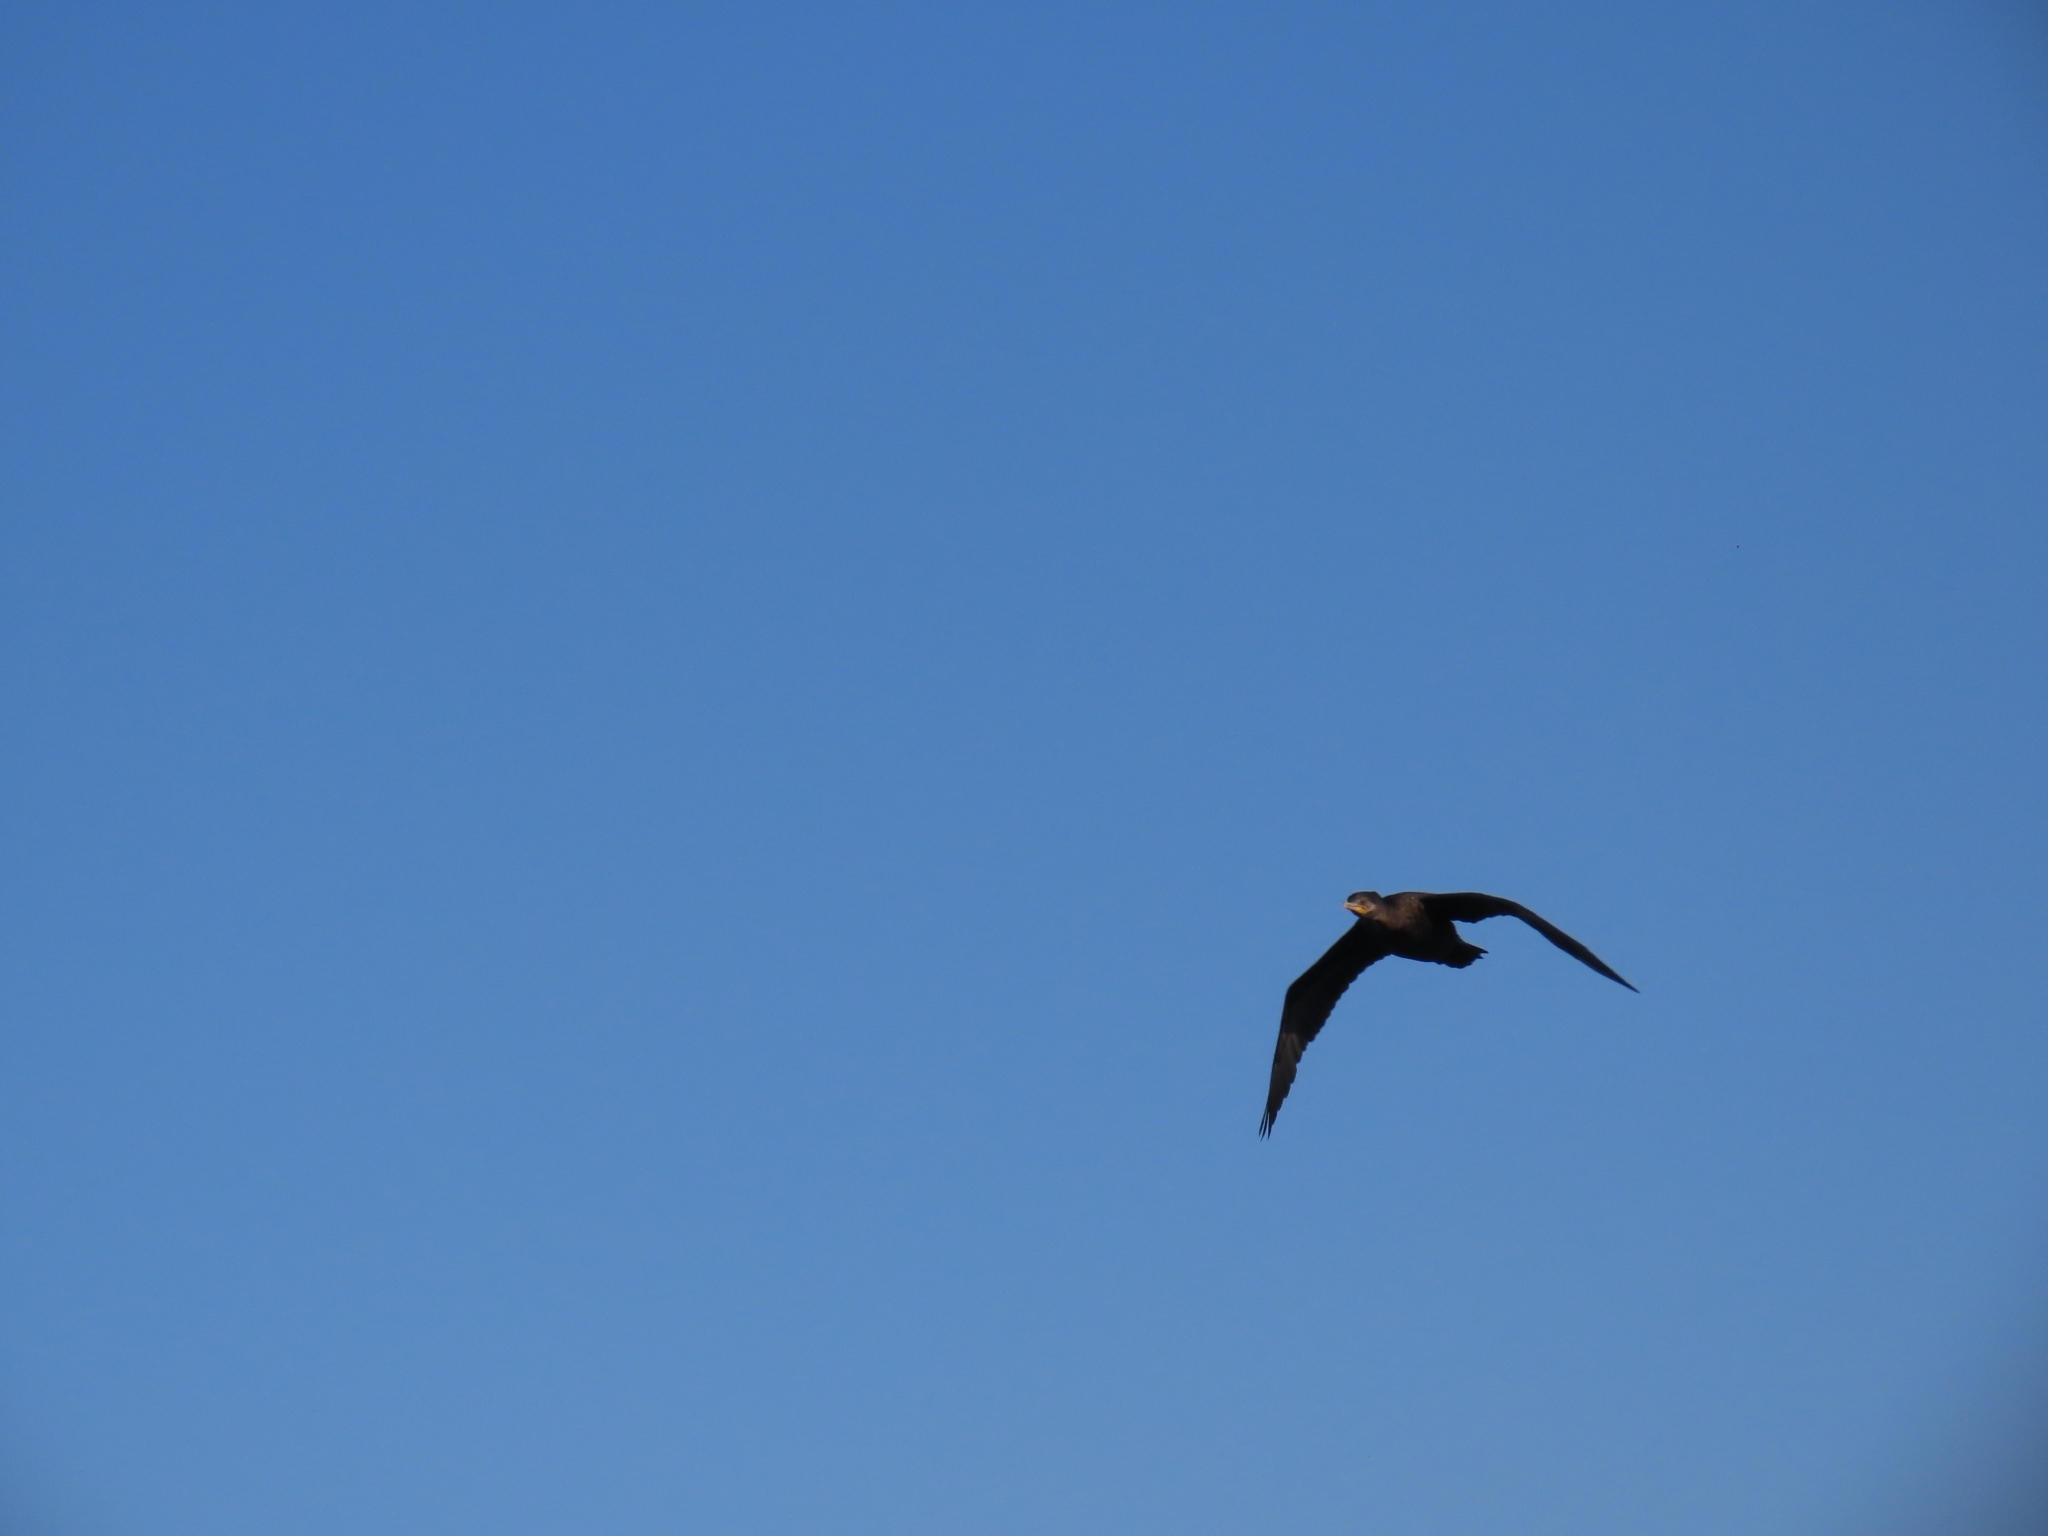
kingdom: Animalia
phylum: Chordata
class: Aves
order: Suliformes
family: Phalacrocoracidae
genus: Phalacrocorax
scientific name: Phalacrocorax brasilianus
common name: Neotropic cormorant
